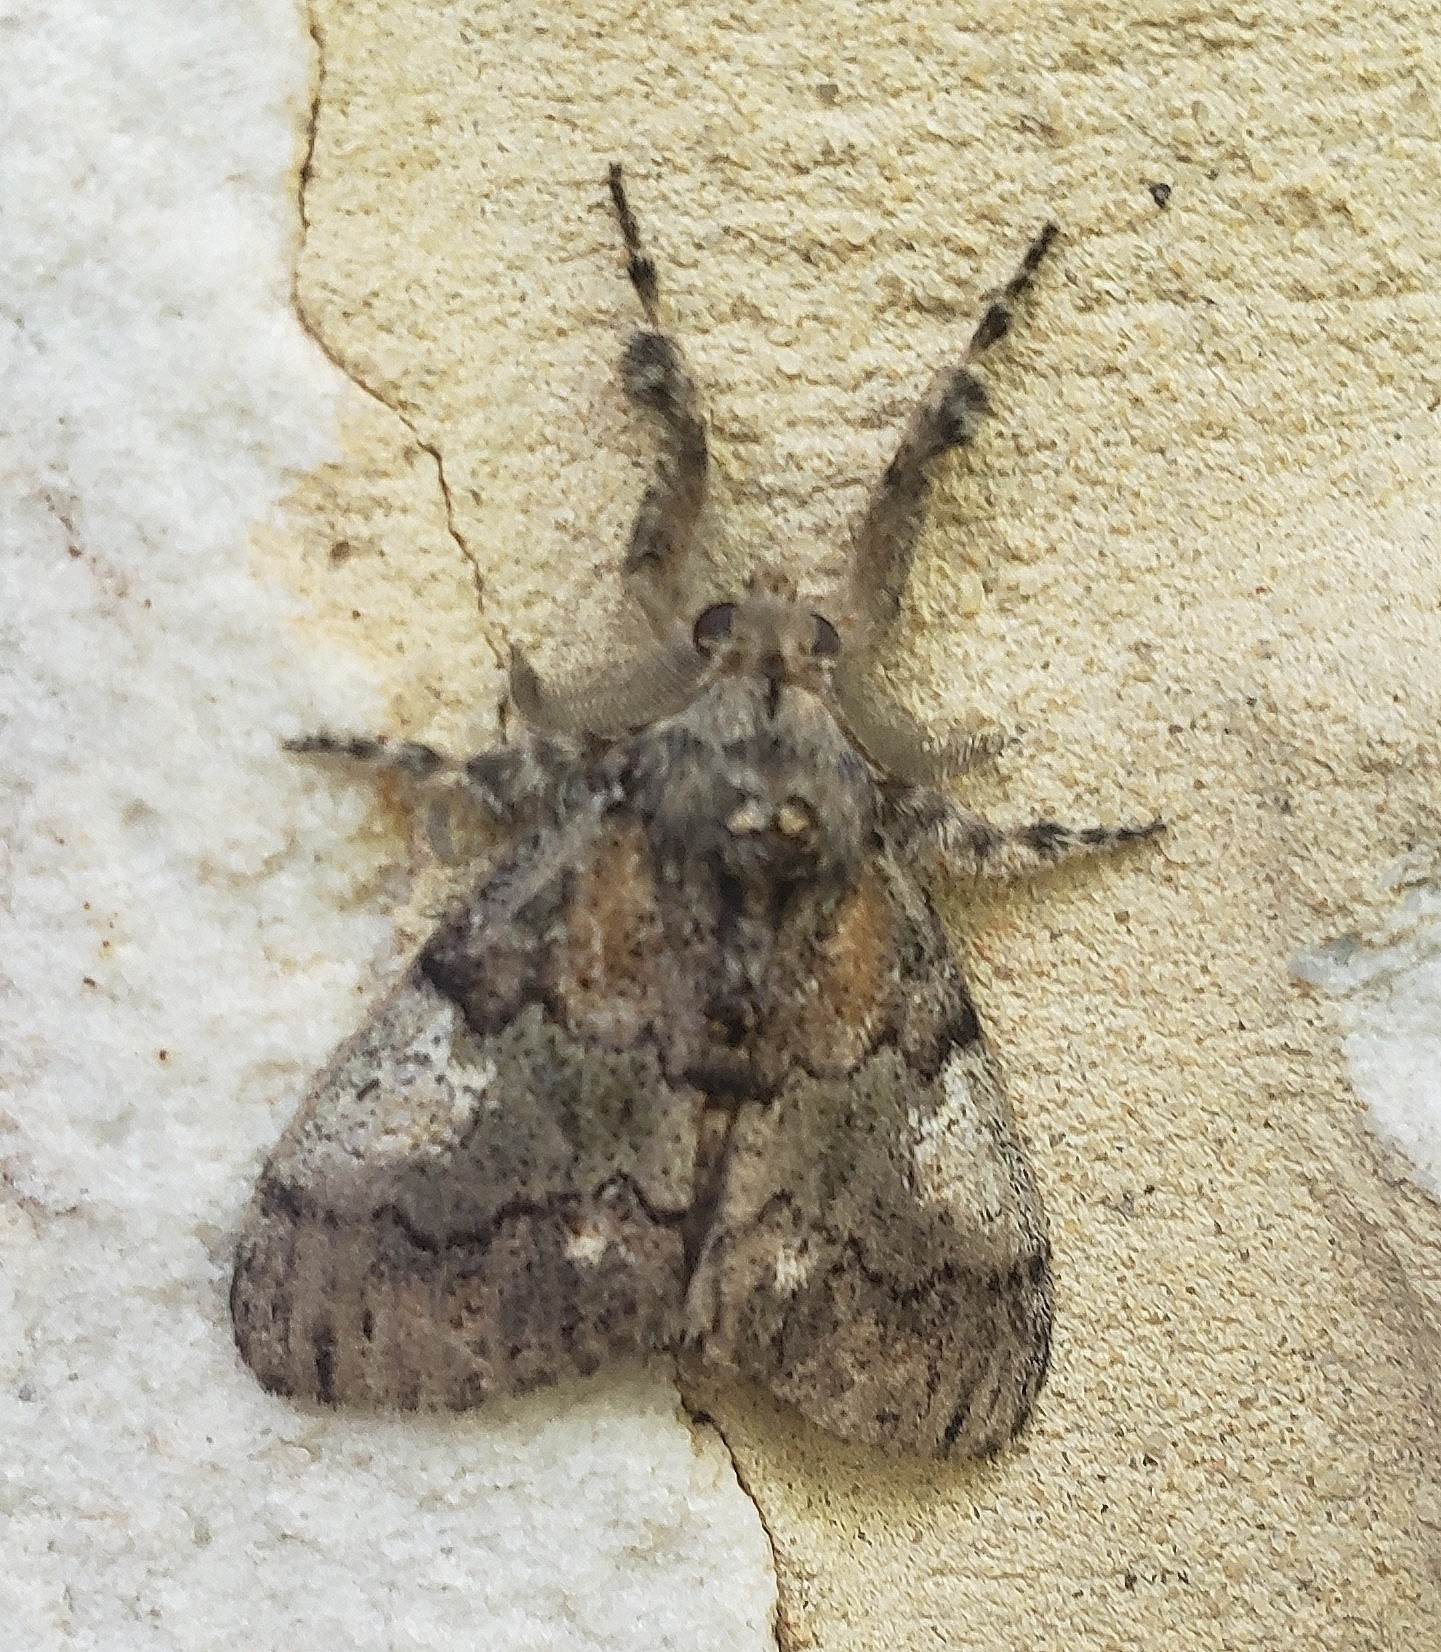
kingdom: Animalia
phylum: Arthropoda
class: Insecta
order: Lepidoptera
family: Erebidae
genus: Dasychira
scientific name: Dasychira basiflava
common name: Yellow-based tussock moth
